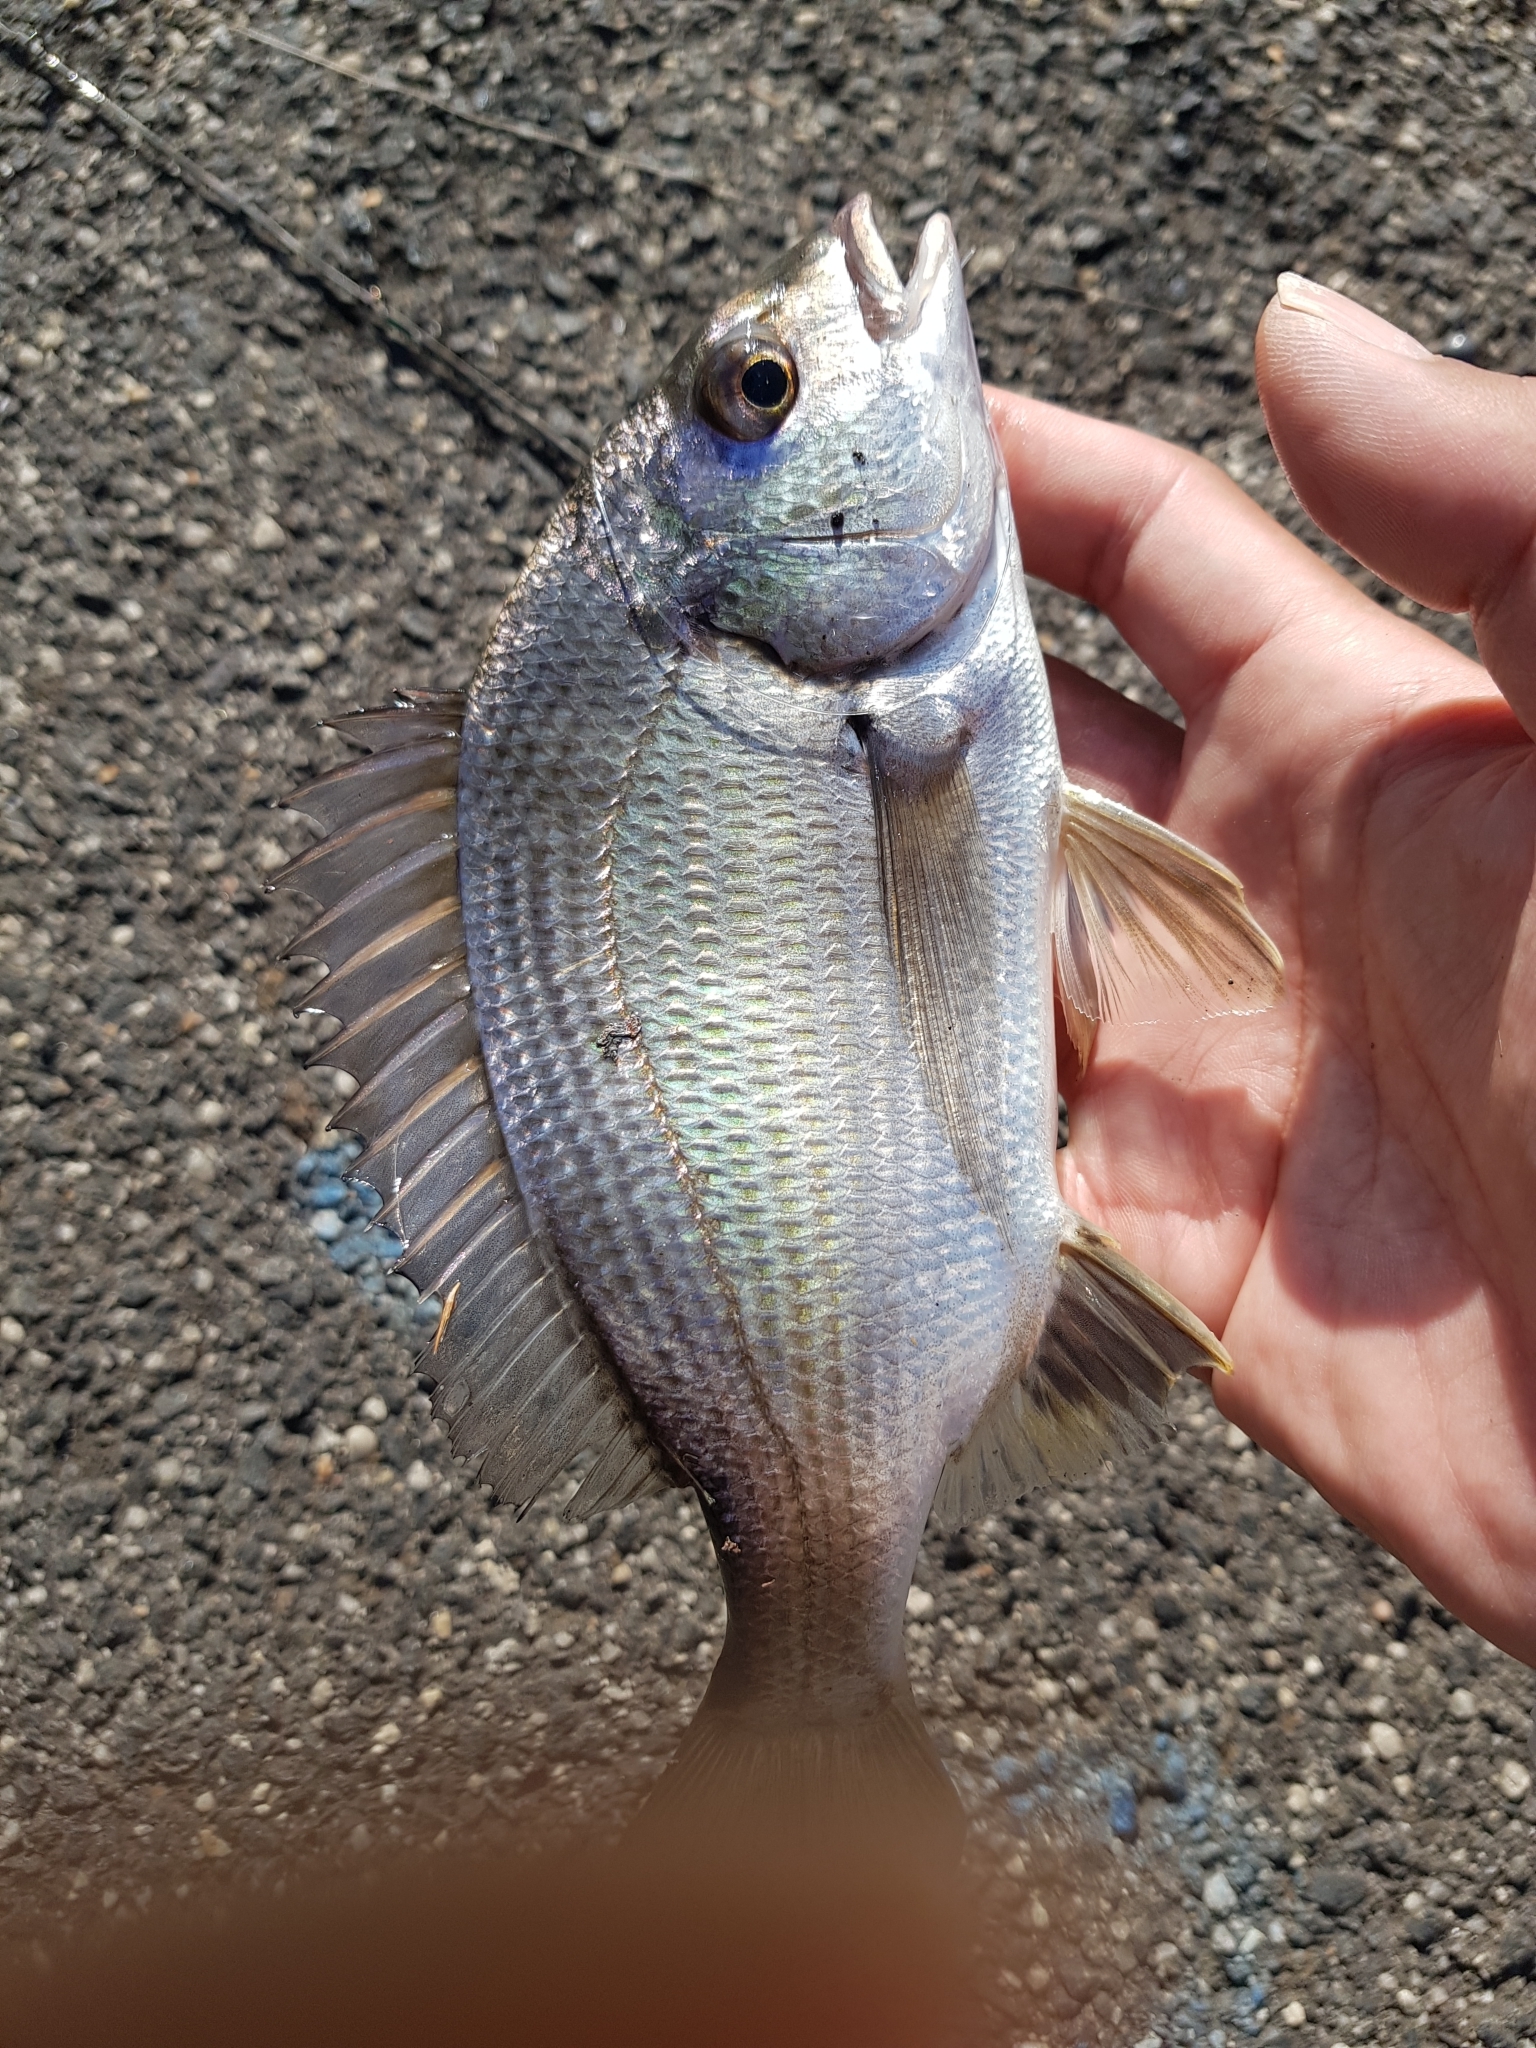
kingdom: Animalia
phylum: Chordata
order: Perciformes
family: Sparidae
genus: Acanthopagrus
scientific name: Acanthopagrus butcheri
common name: Black bream
